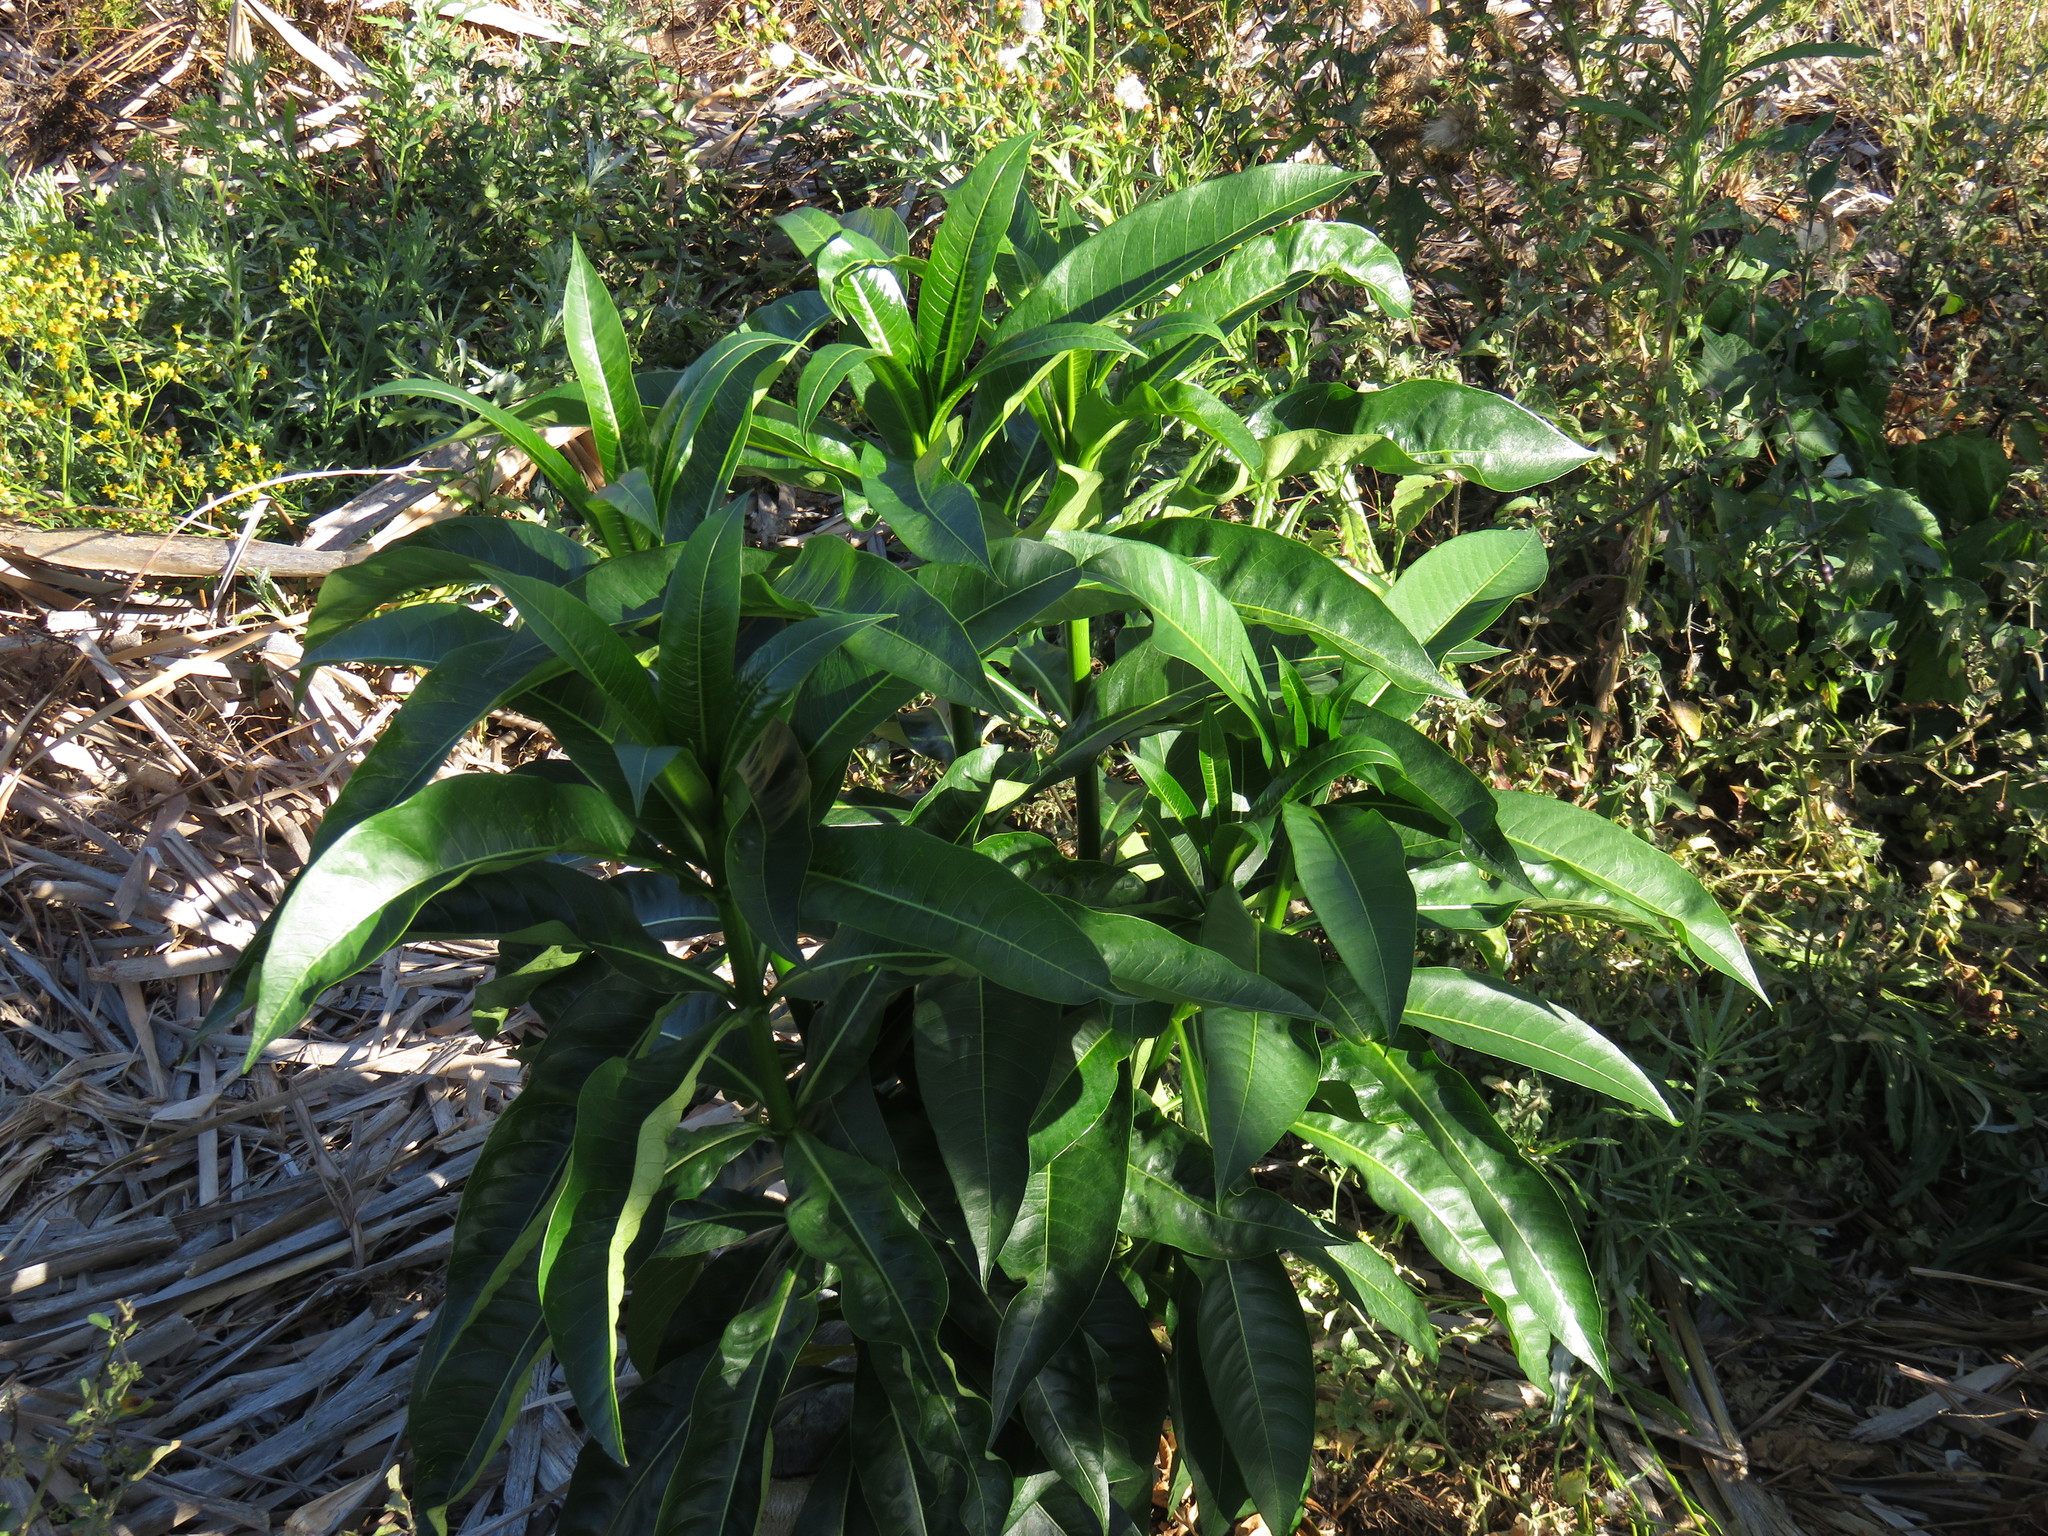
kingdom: Plantae
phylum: Tracheophyta
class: Magnoliopsida
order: Gentianales
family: Apocynaceae
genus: Rauvolfia
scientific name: Rauvolfia caffra
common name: Quininetree
